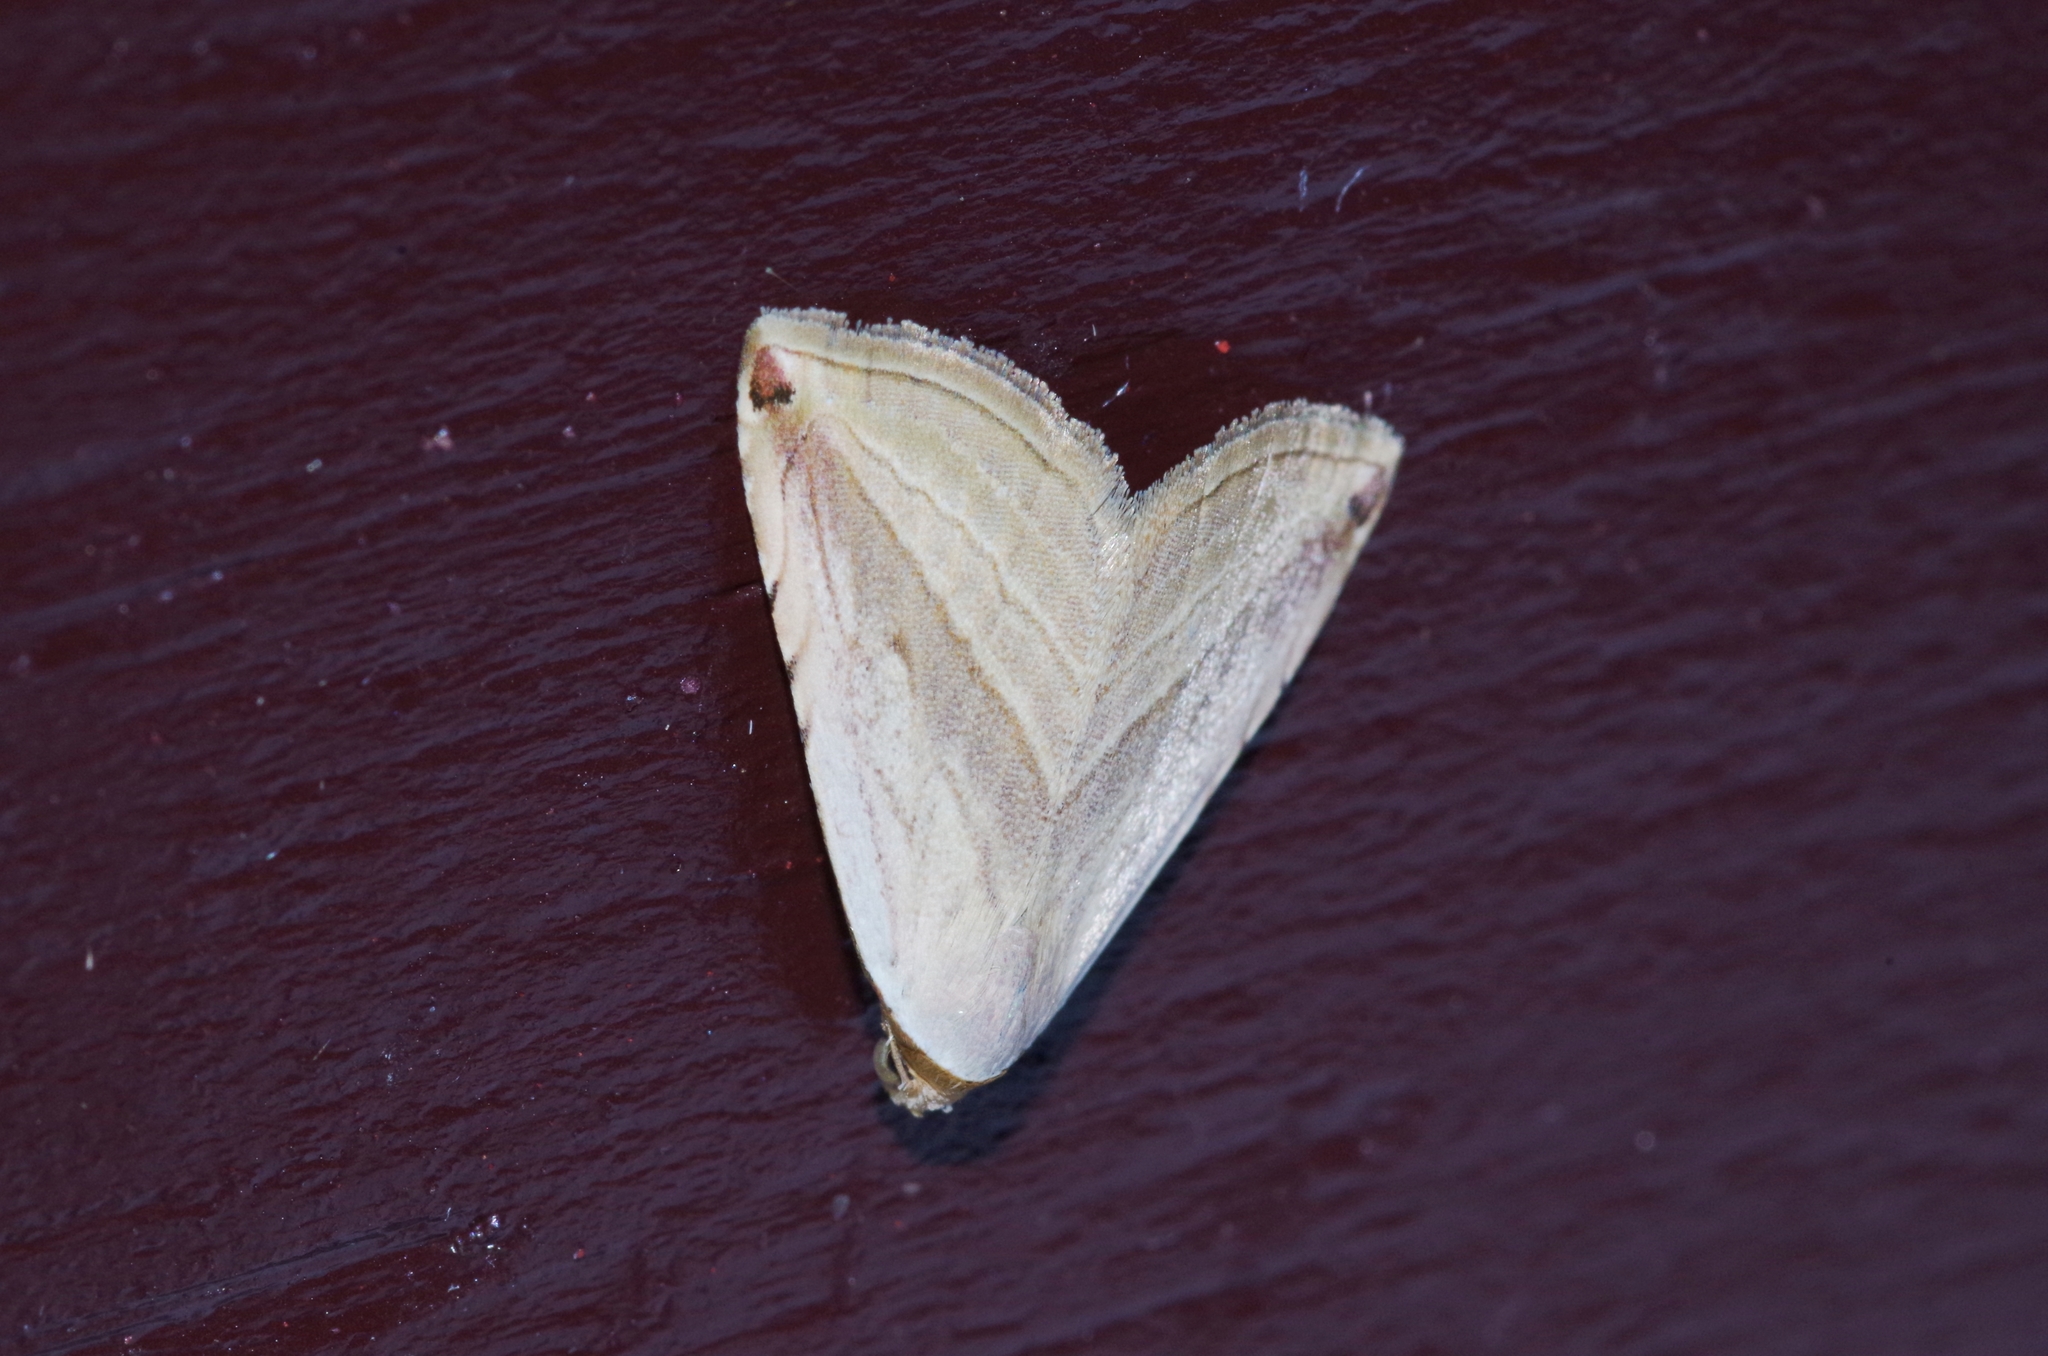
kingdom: Animalia
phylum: Arthropoda
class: Insecta
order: Lepidoptera
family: Noctuidae
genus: Honeyania
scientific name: Honeyania ragusana
